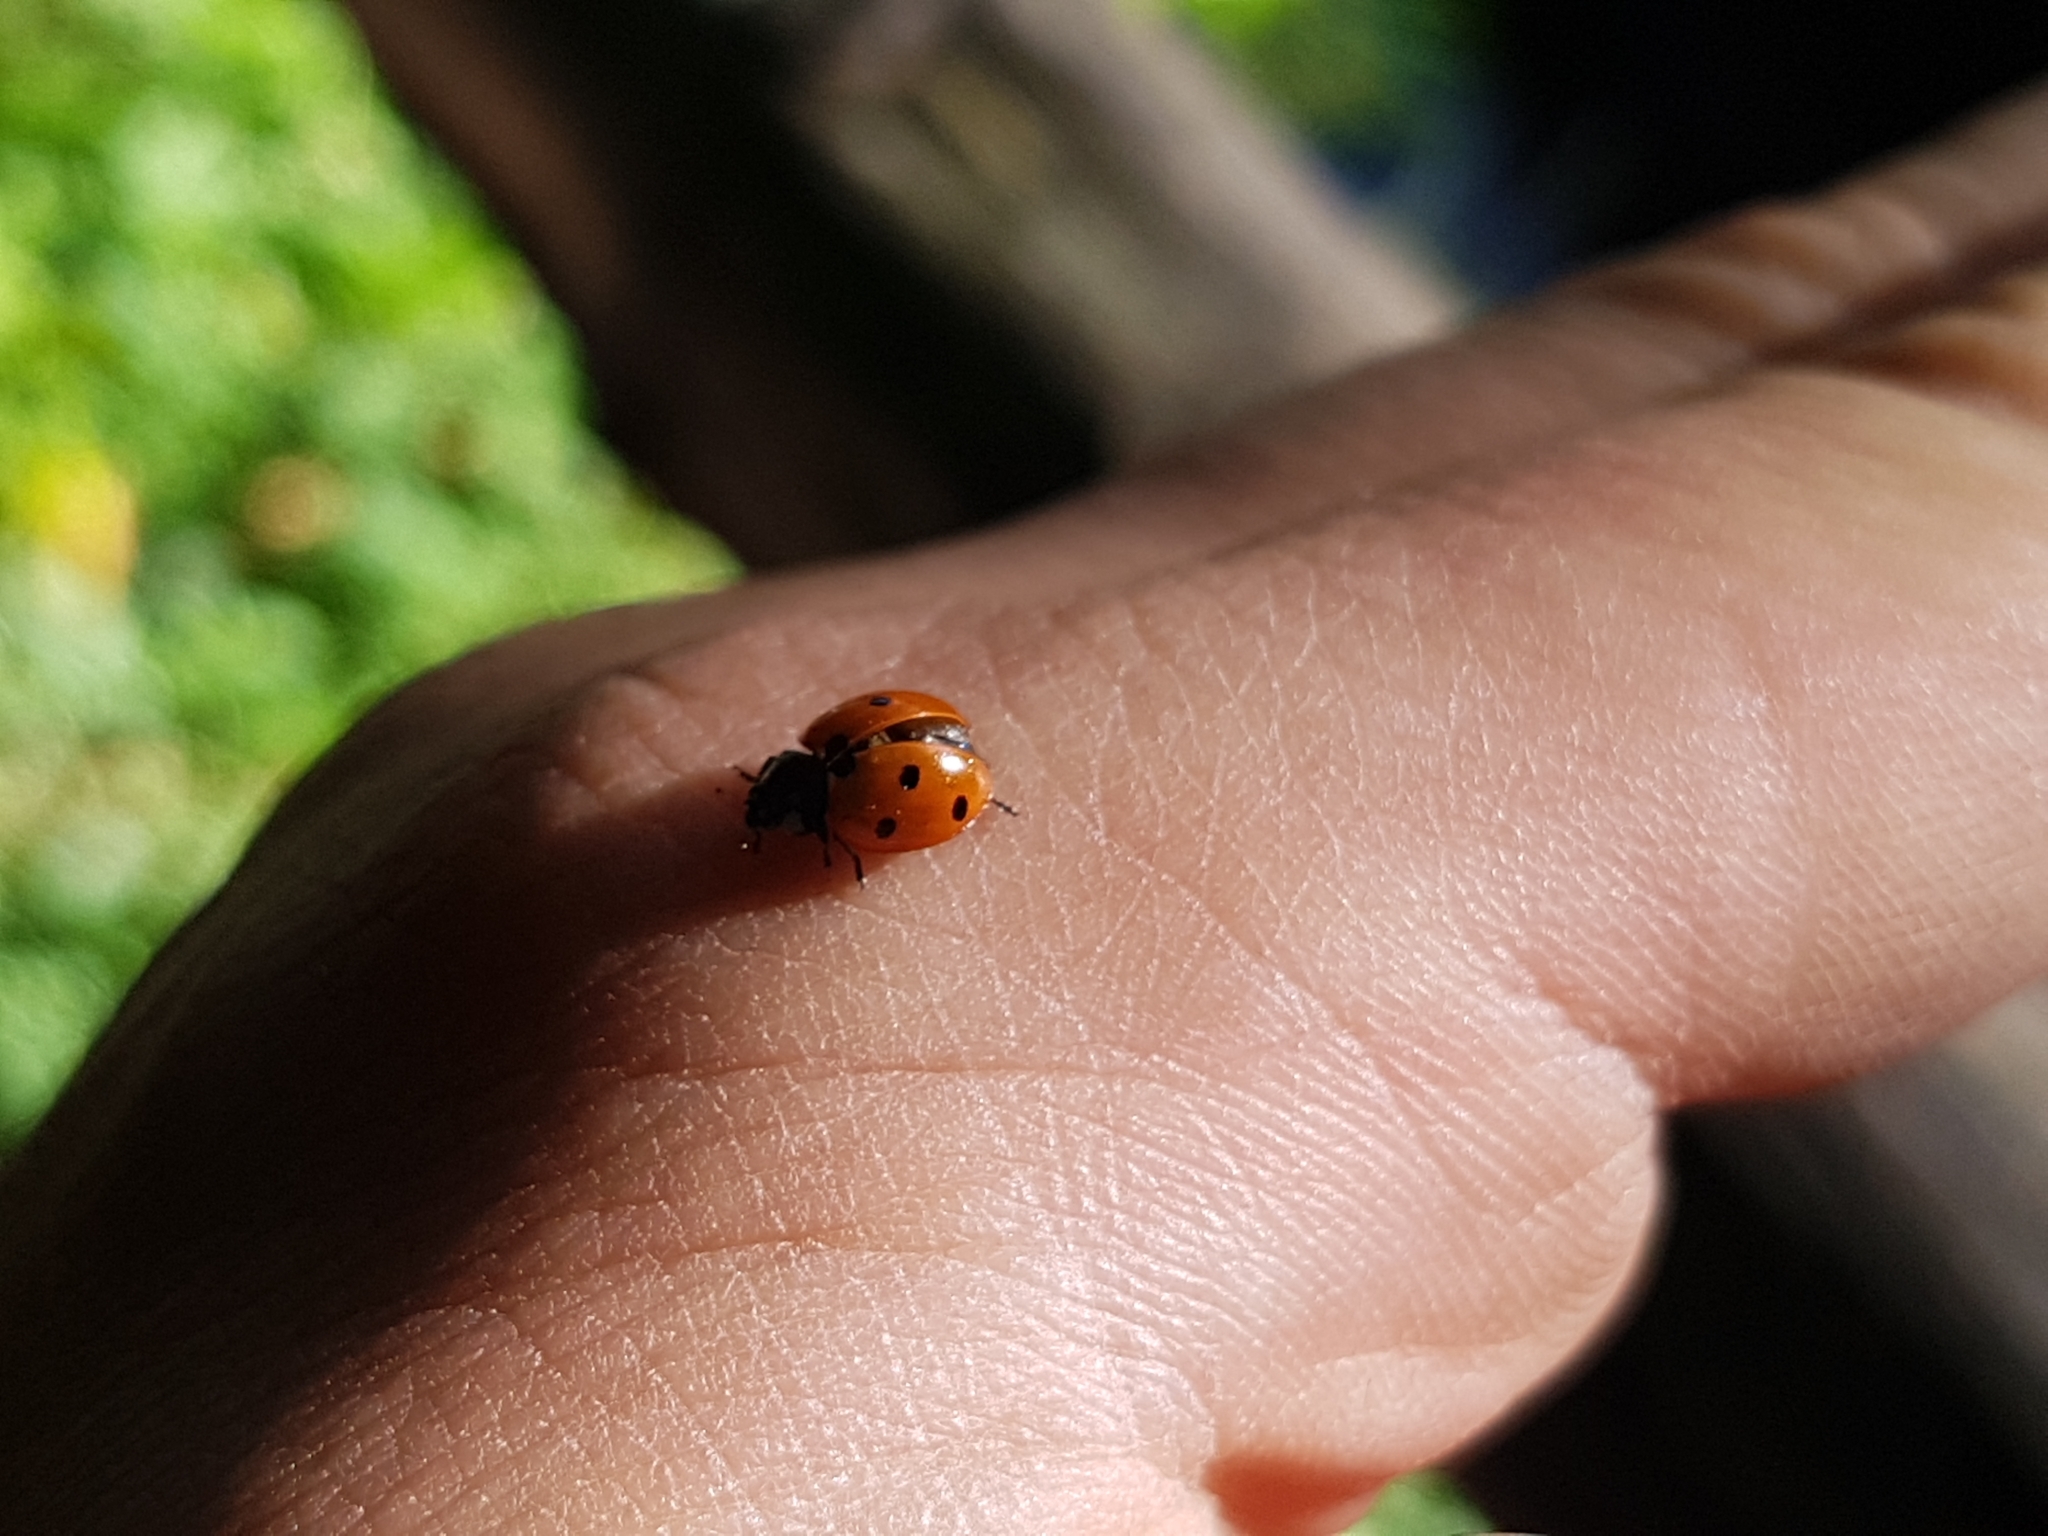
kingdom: Animalia
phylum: Arthropoda
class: Insecta
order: Coleoptera
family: Coccinellidae
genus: Coccinella
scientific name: Coccinella septempunctata
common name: Sevenspotted lady beetle
